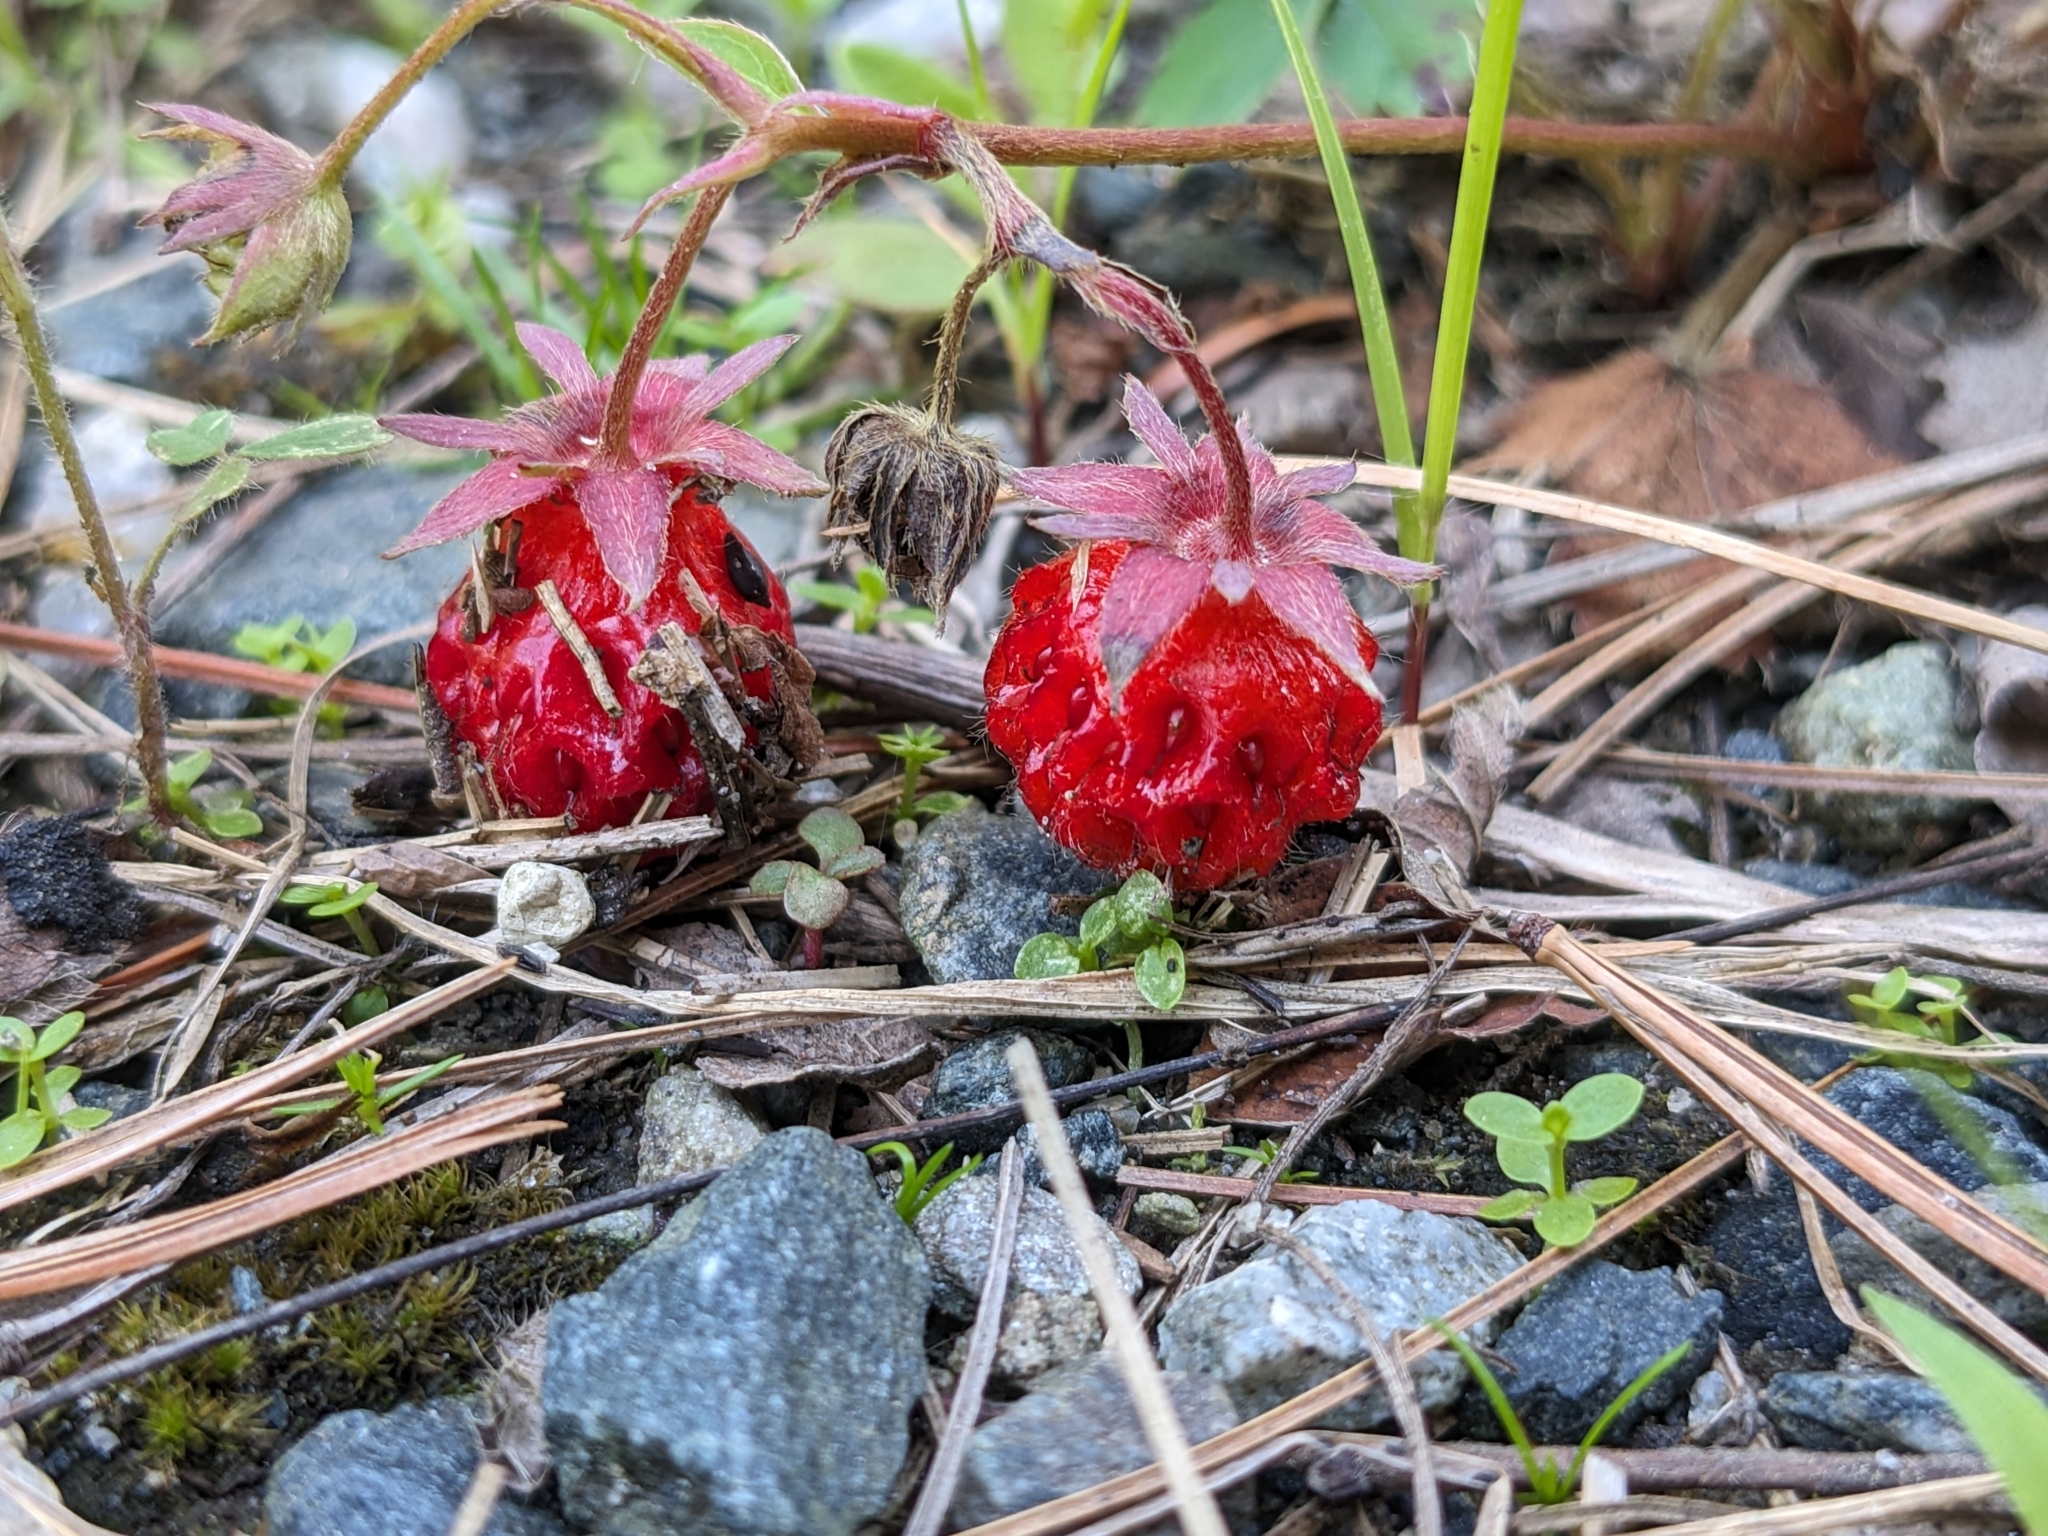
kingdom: Plantae
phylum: Tracheophyta
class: Magnoliopsida
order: Rosales
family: Rosaceae
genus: Fragaria
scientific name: Fragaria virginiana
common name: Thickleaved wild strawberry
